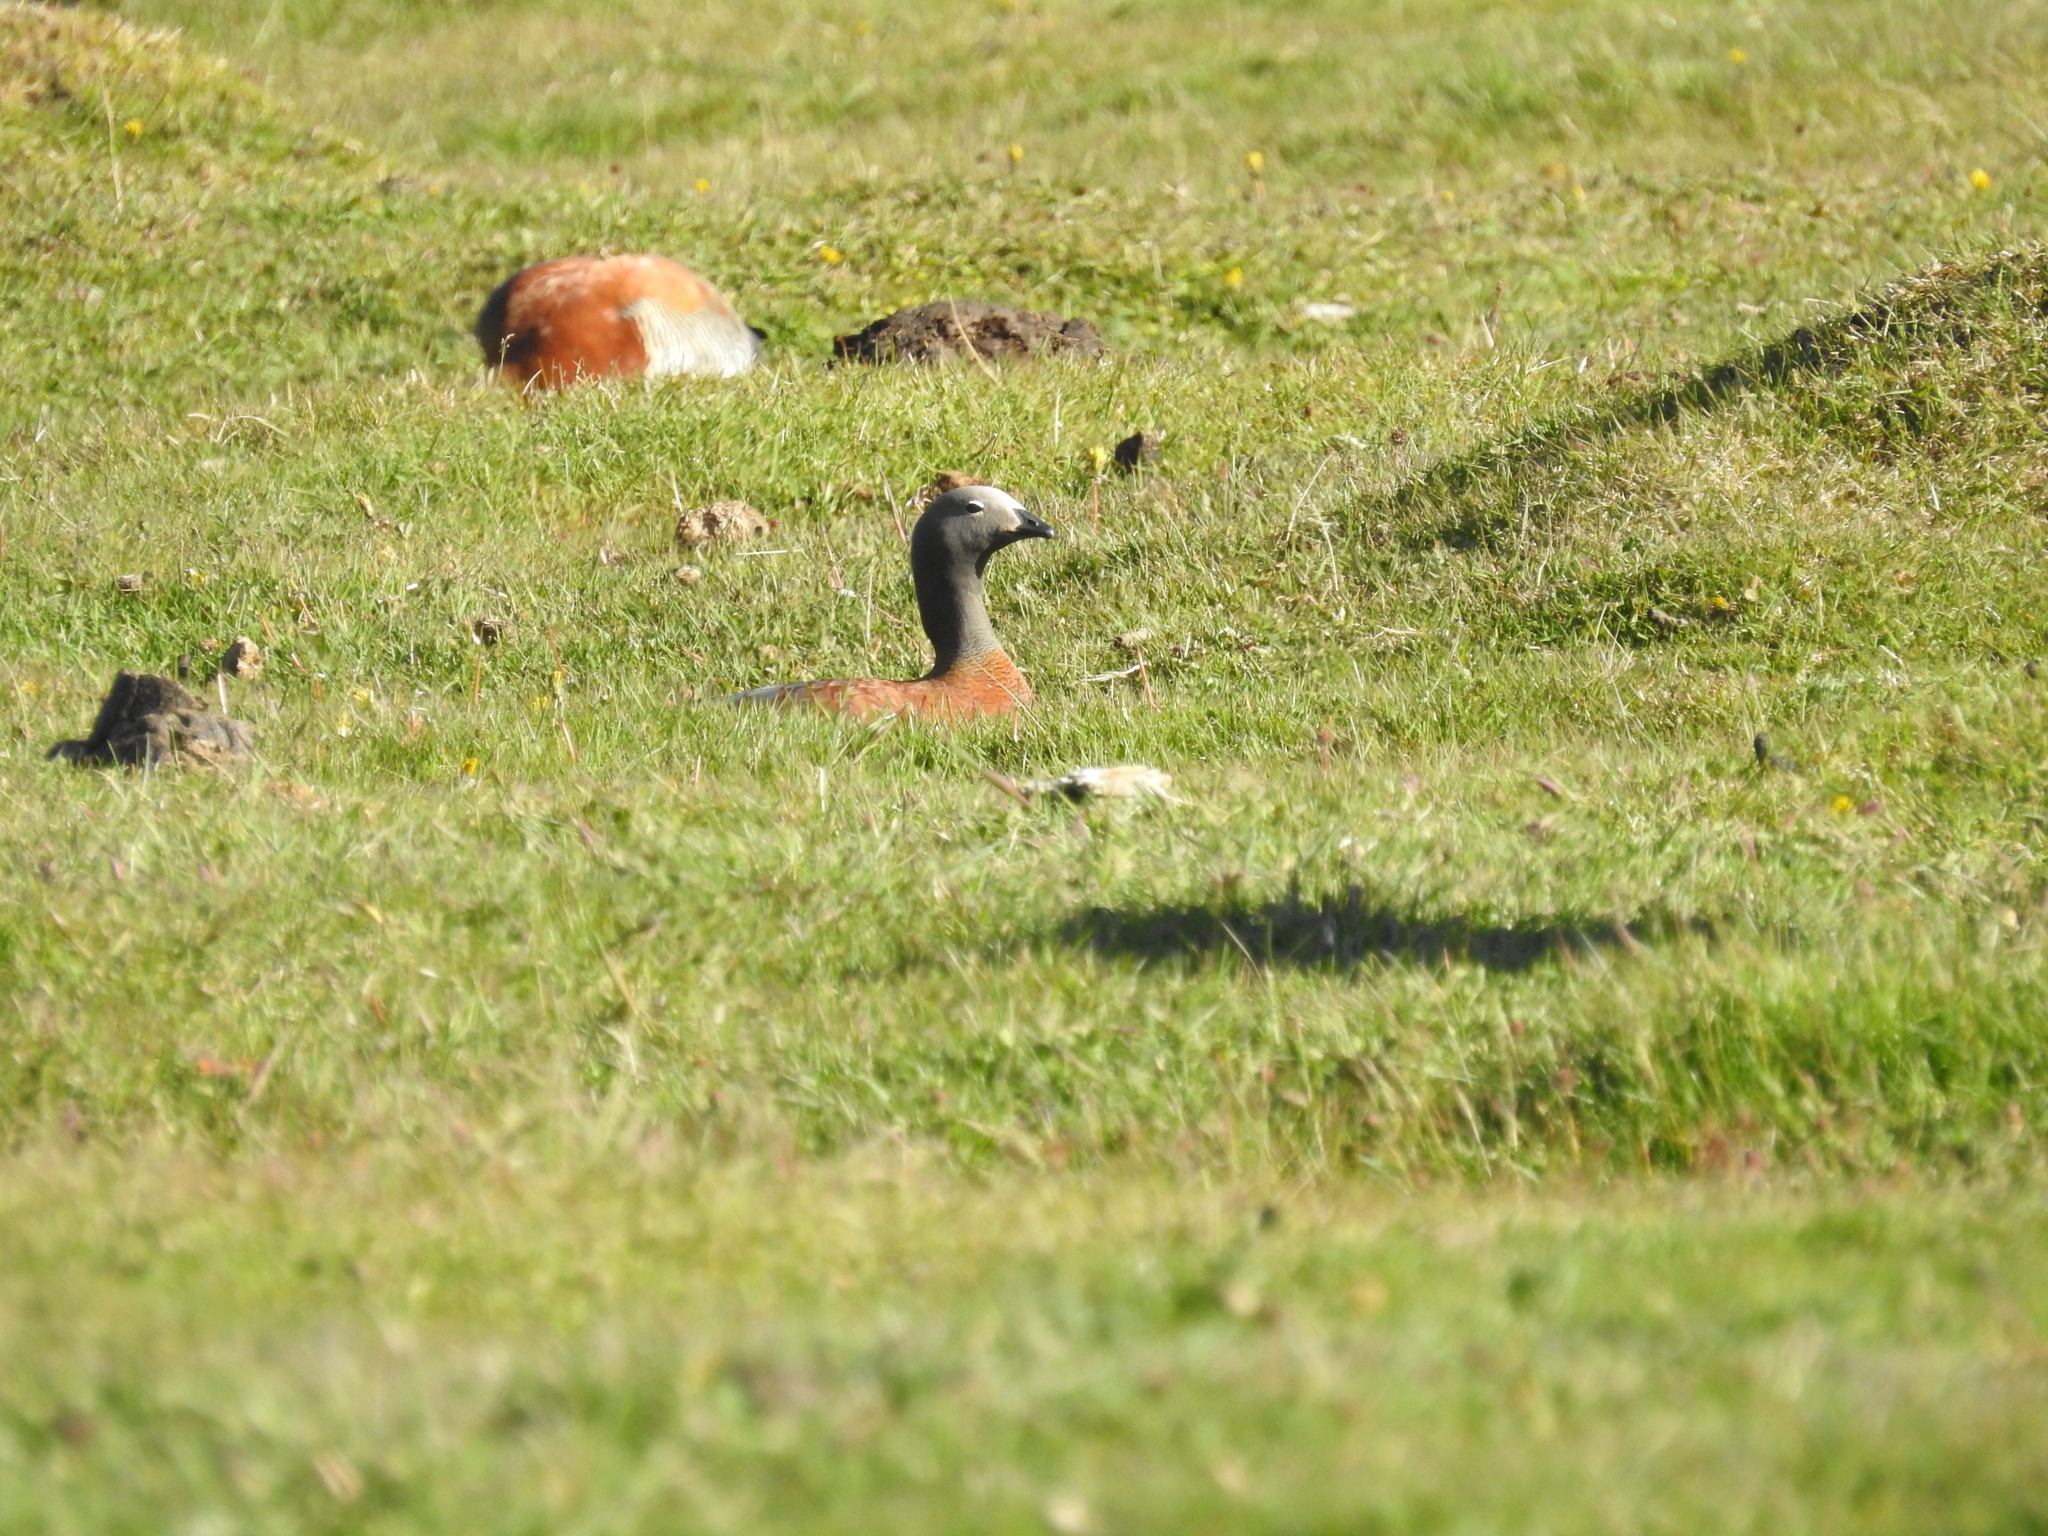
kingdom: Animalia
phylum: Chordata
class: Aves
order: Anseriformes
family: Anatidae
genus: Chloephaga
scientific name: Chloephaga poliocephala
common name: Ashy-headed goose
